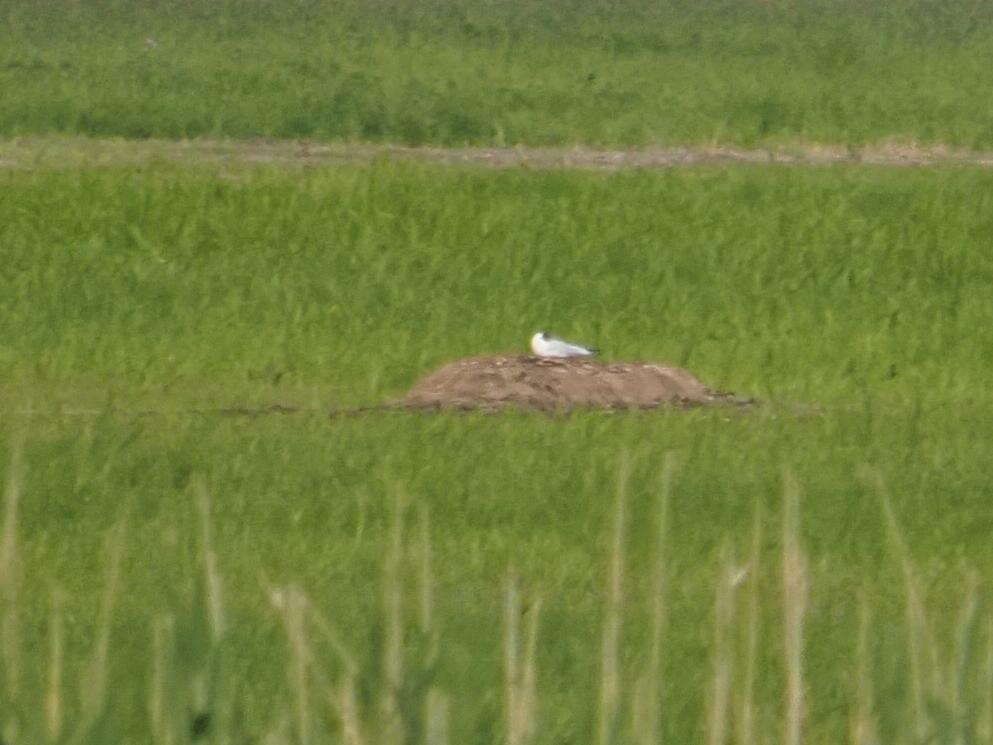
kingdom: Animalia
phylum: Chordata
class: Aves
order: Charadriiformes
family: Laridae
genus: Chroicocephalus
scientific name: Chroicocephalus ridibundus
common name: Black-headed gull
